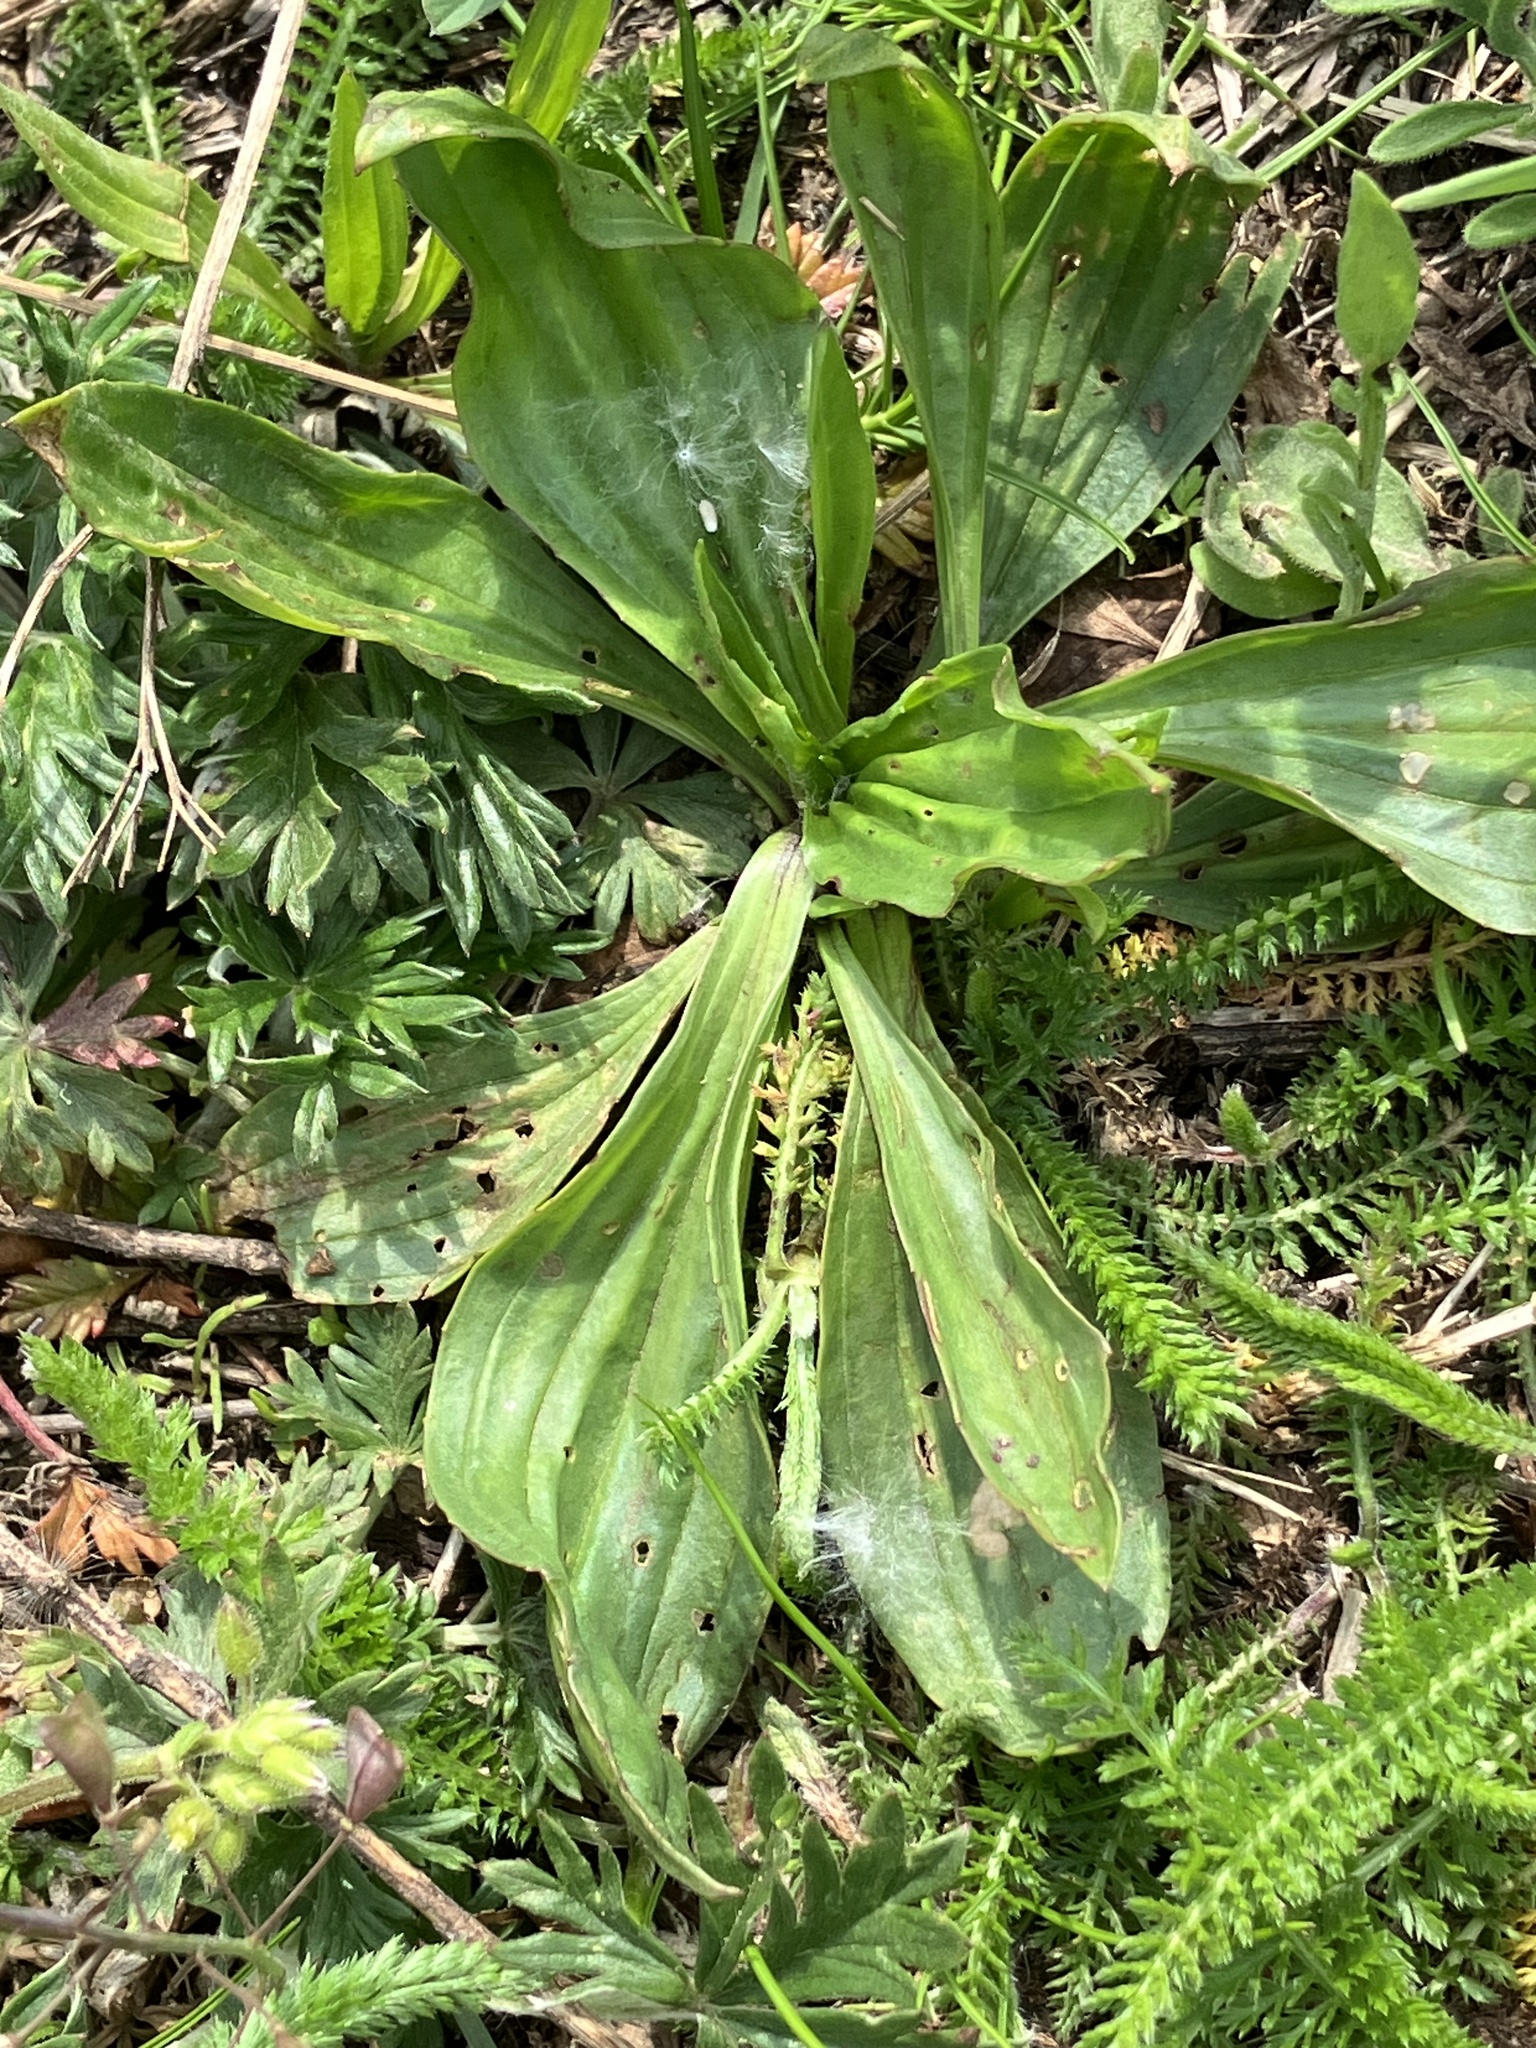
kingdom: Plantae
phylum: Tracheophyta
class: Magnoliopsida
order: Lamiales
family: Plantaginaceae
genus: Plantago
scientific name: Plantago lanceolata
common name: Ribwort plantain
